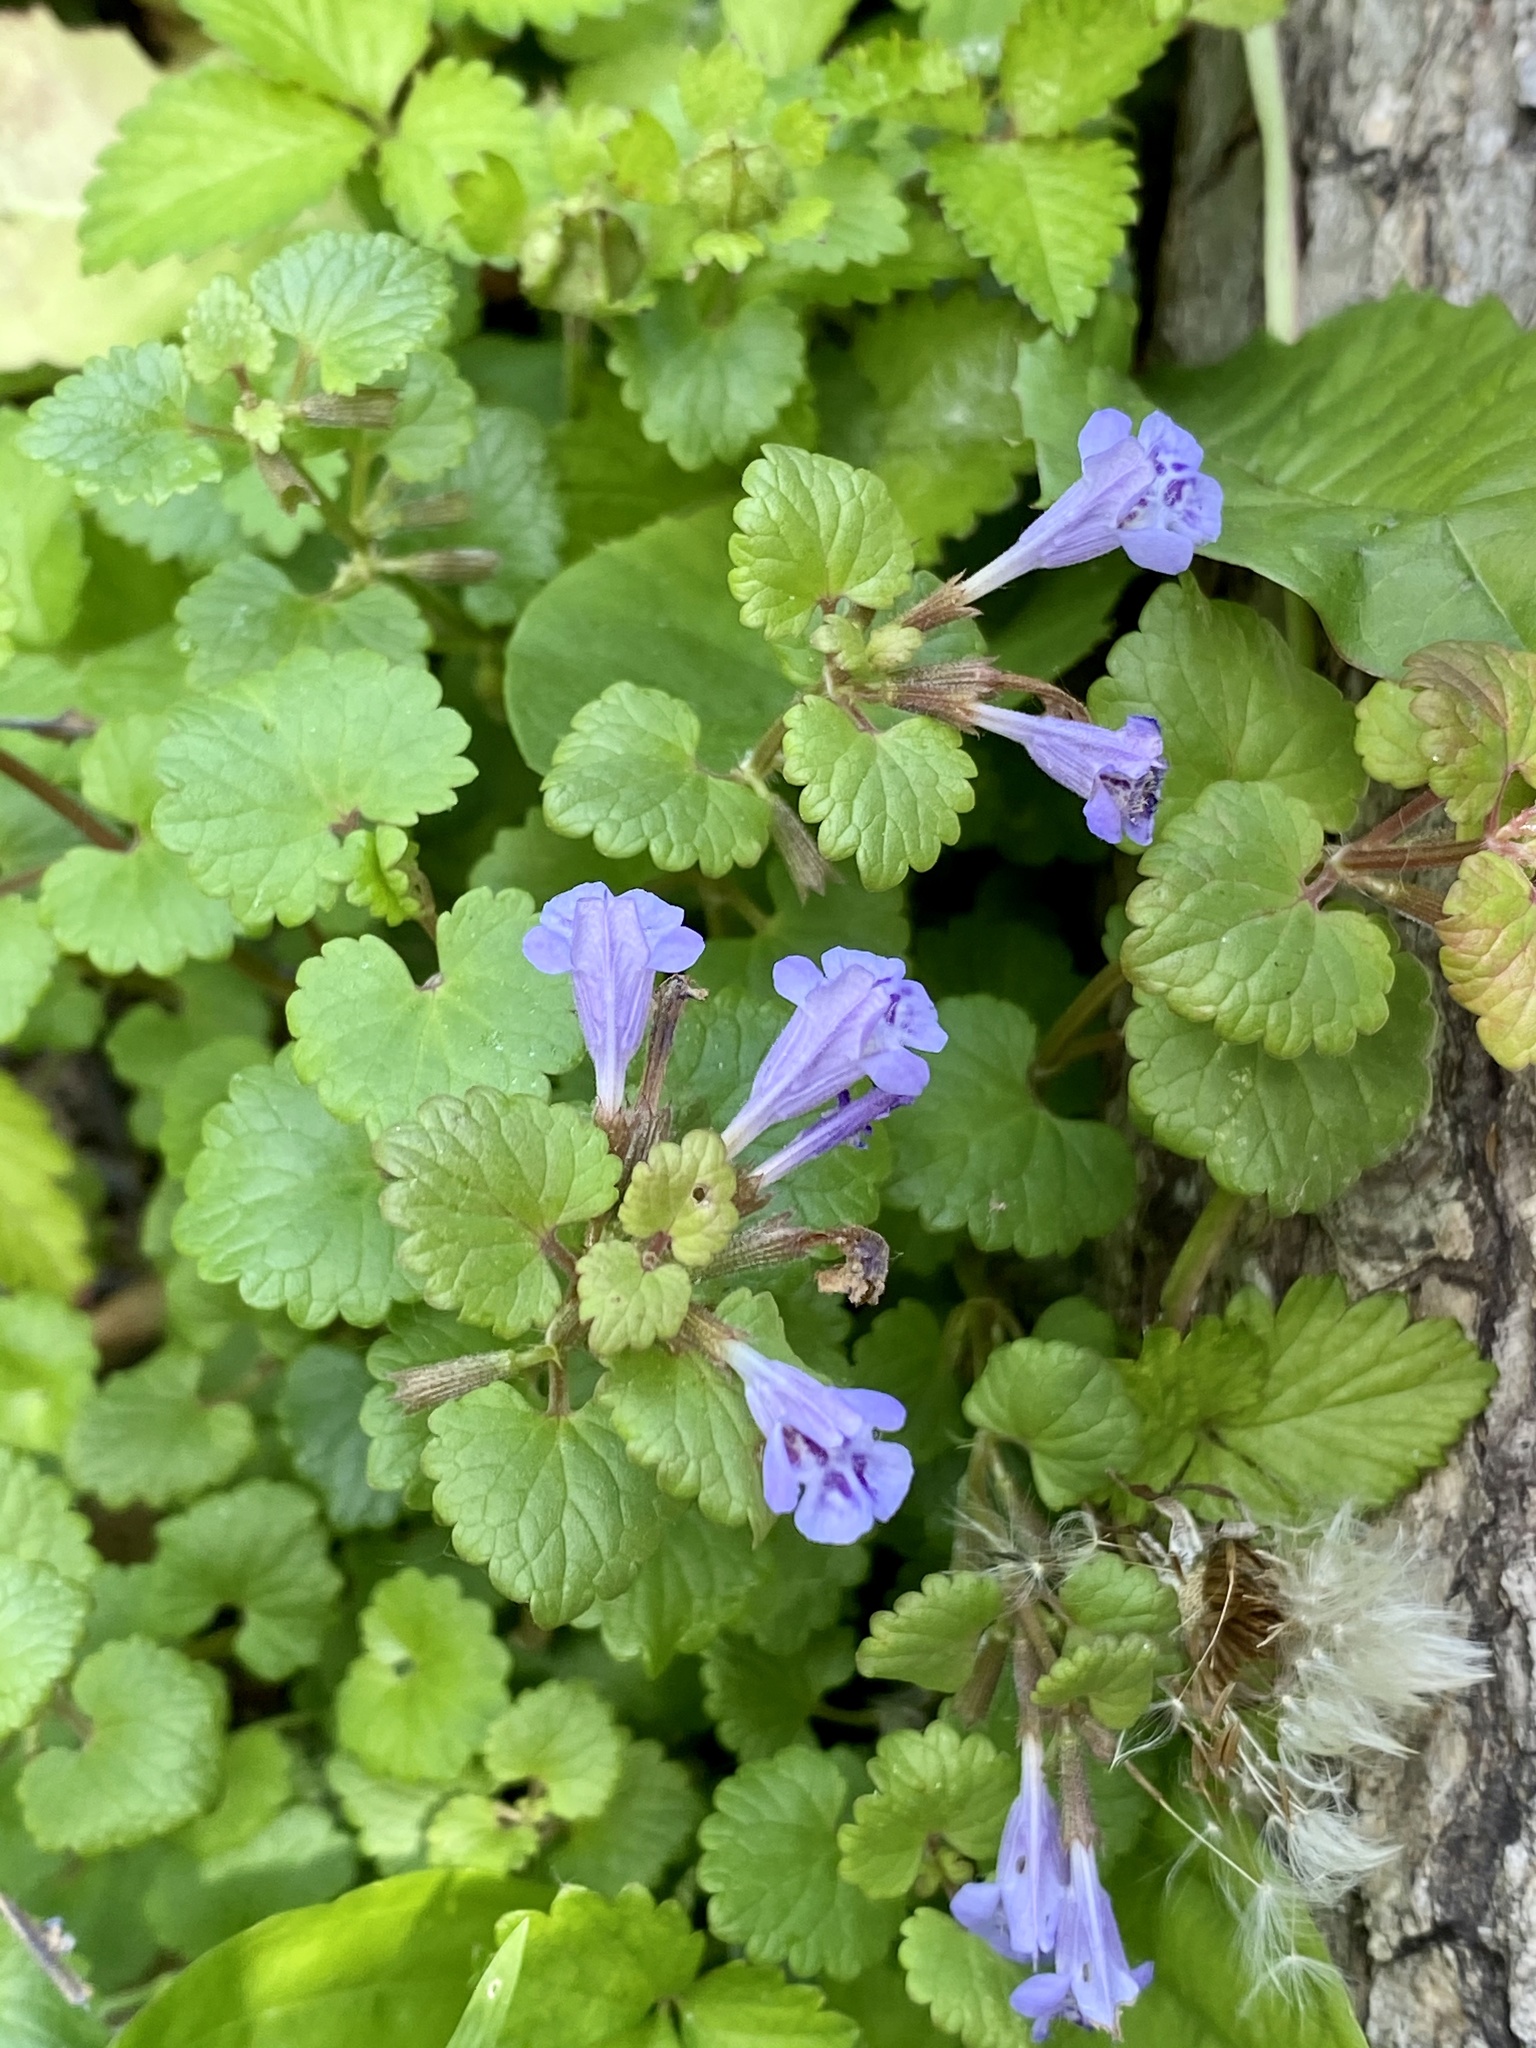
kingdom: Plantae
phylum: Tracheophyta
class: Magnoliopsida
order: Lamiales
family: Lamiaceae
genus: Glechoma
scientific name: Glechoma hederacea
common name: Ground ivy
